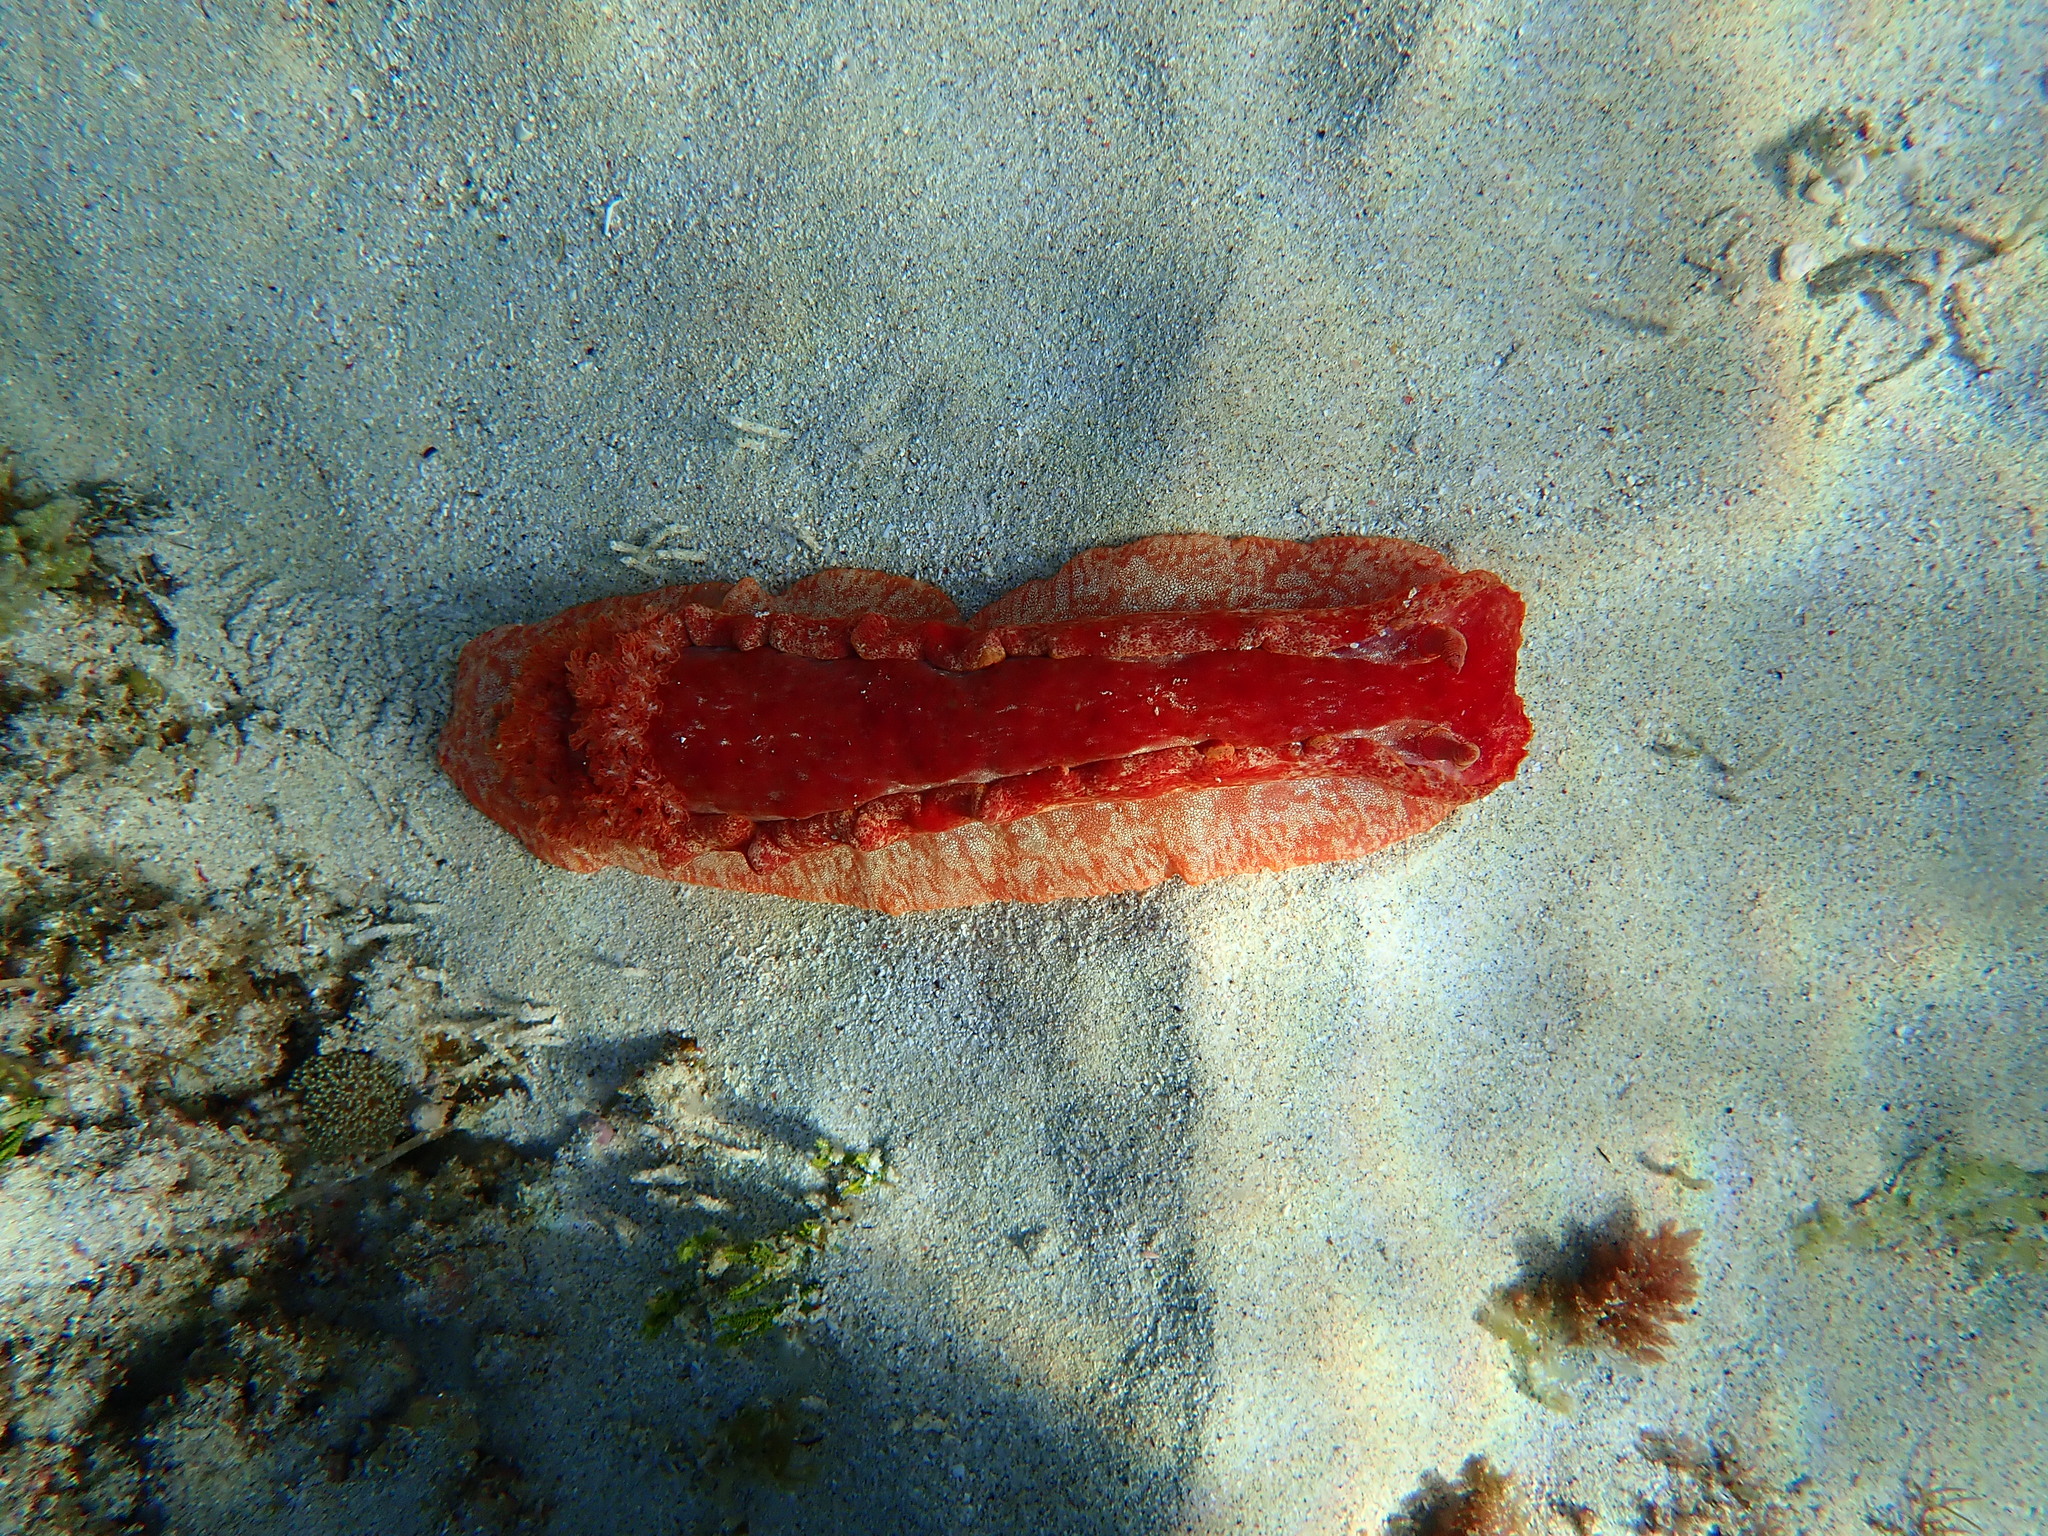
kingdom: Animalia
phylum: Mollusca
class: Gastropoda
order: Nudibranchia
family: Hexabranchidae
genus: Hexabranchus
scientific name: Hexabranchus sanguineus
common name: Spanish dancer
